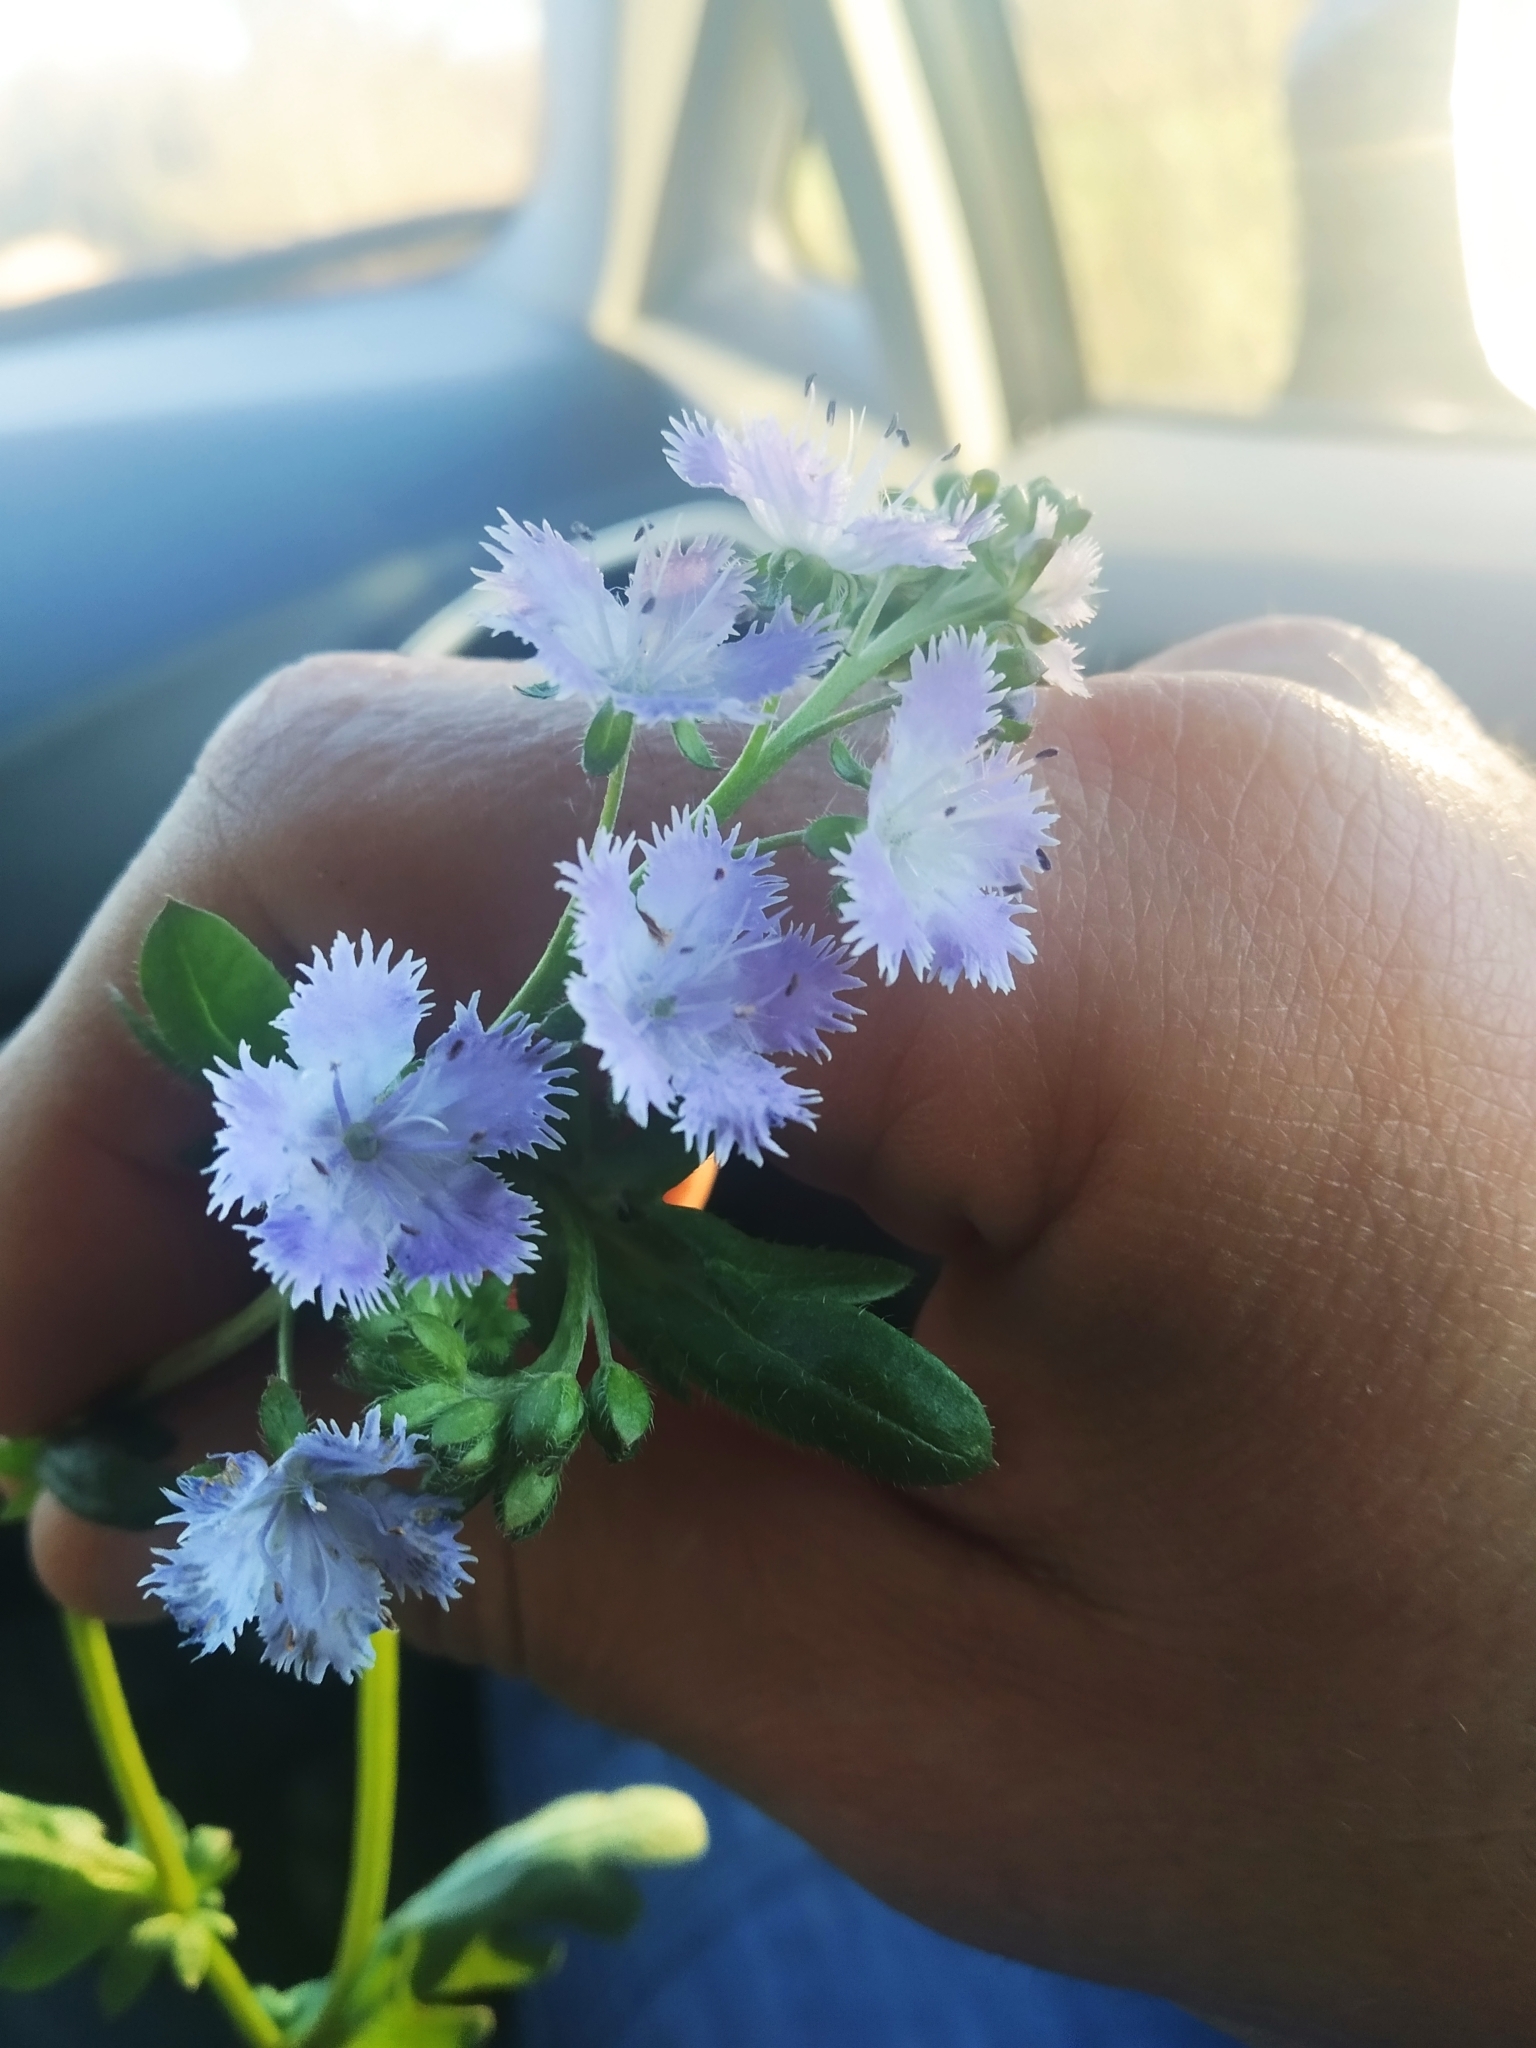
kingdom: Plantae
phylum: Tracheophyta
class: Magnoliopsida
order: Boraginales
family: Hydrophyllaceae
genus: Phacelia
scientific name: Phacelia purshii
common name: Miami-mist
